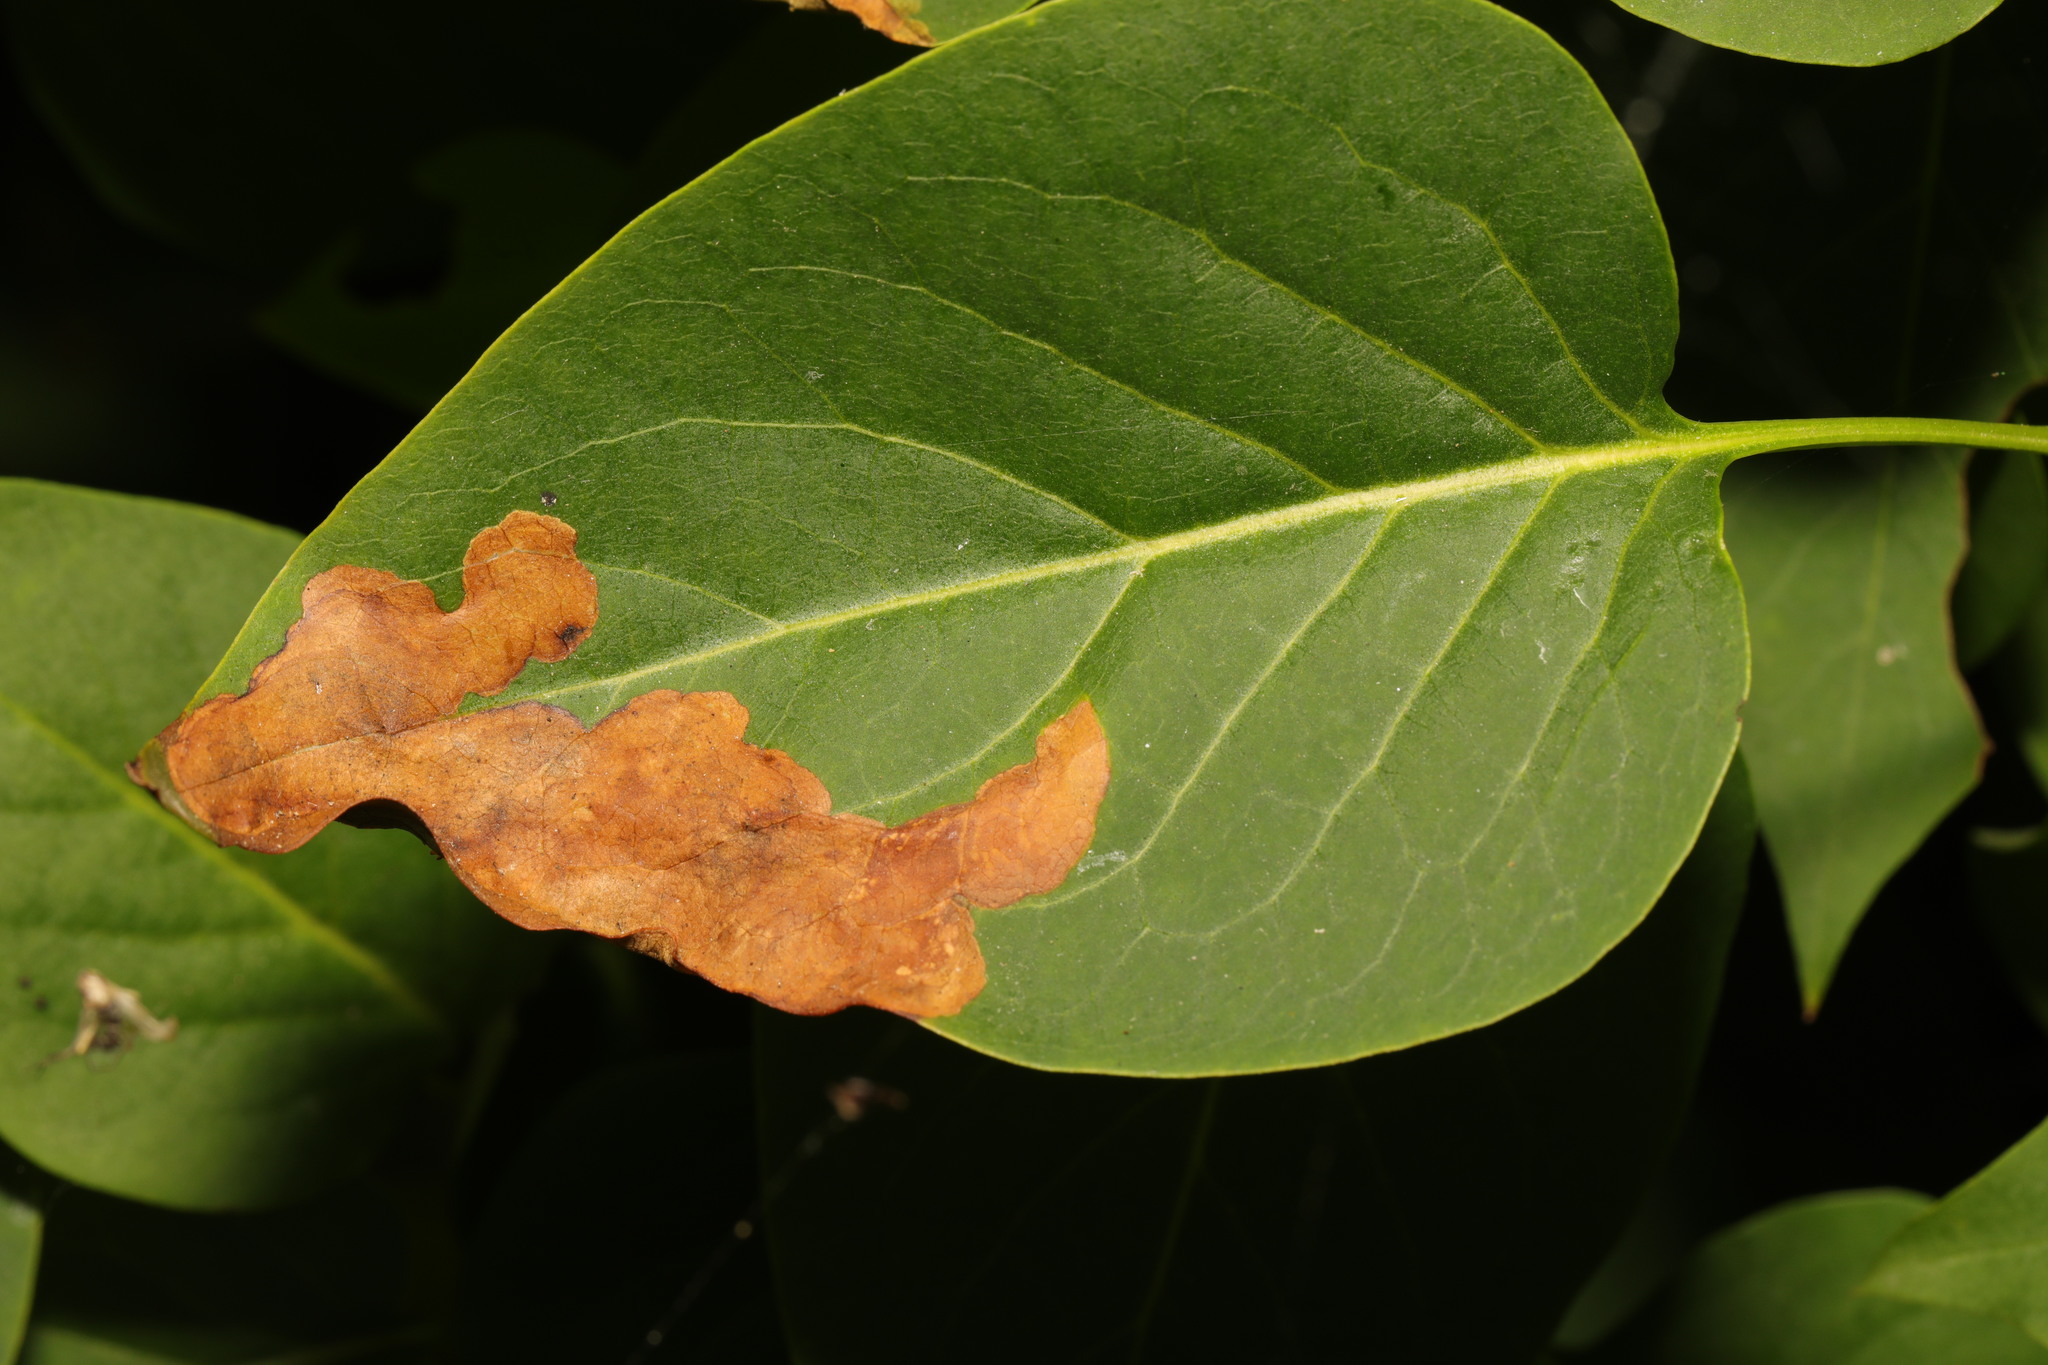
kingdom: Animalia
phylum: Arthropoda
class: Insecta
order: Lepidoptera
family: Gracillariidae
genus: Gracillaria
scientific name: Gracillaria syringella
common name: Common slender
